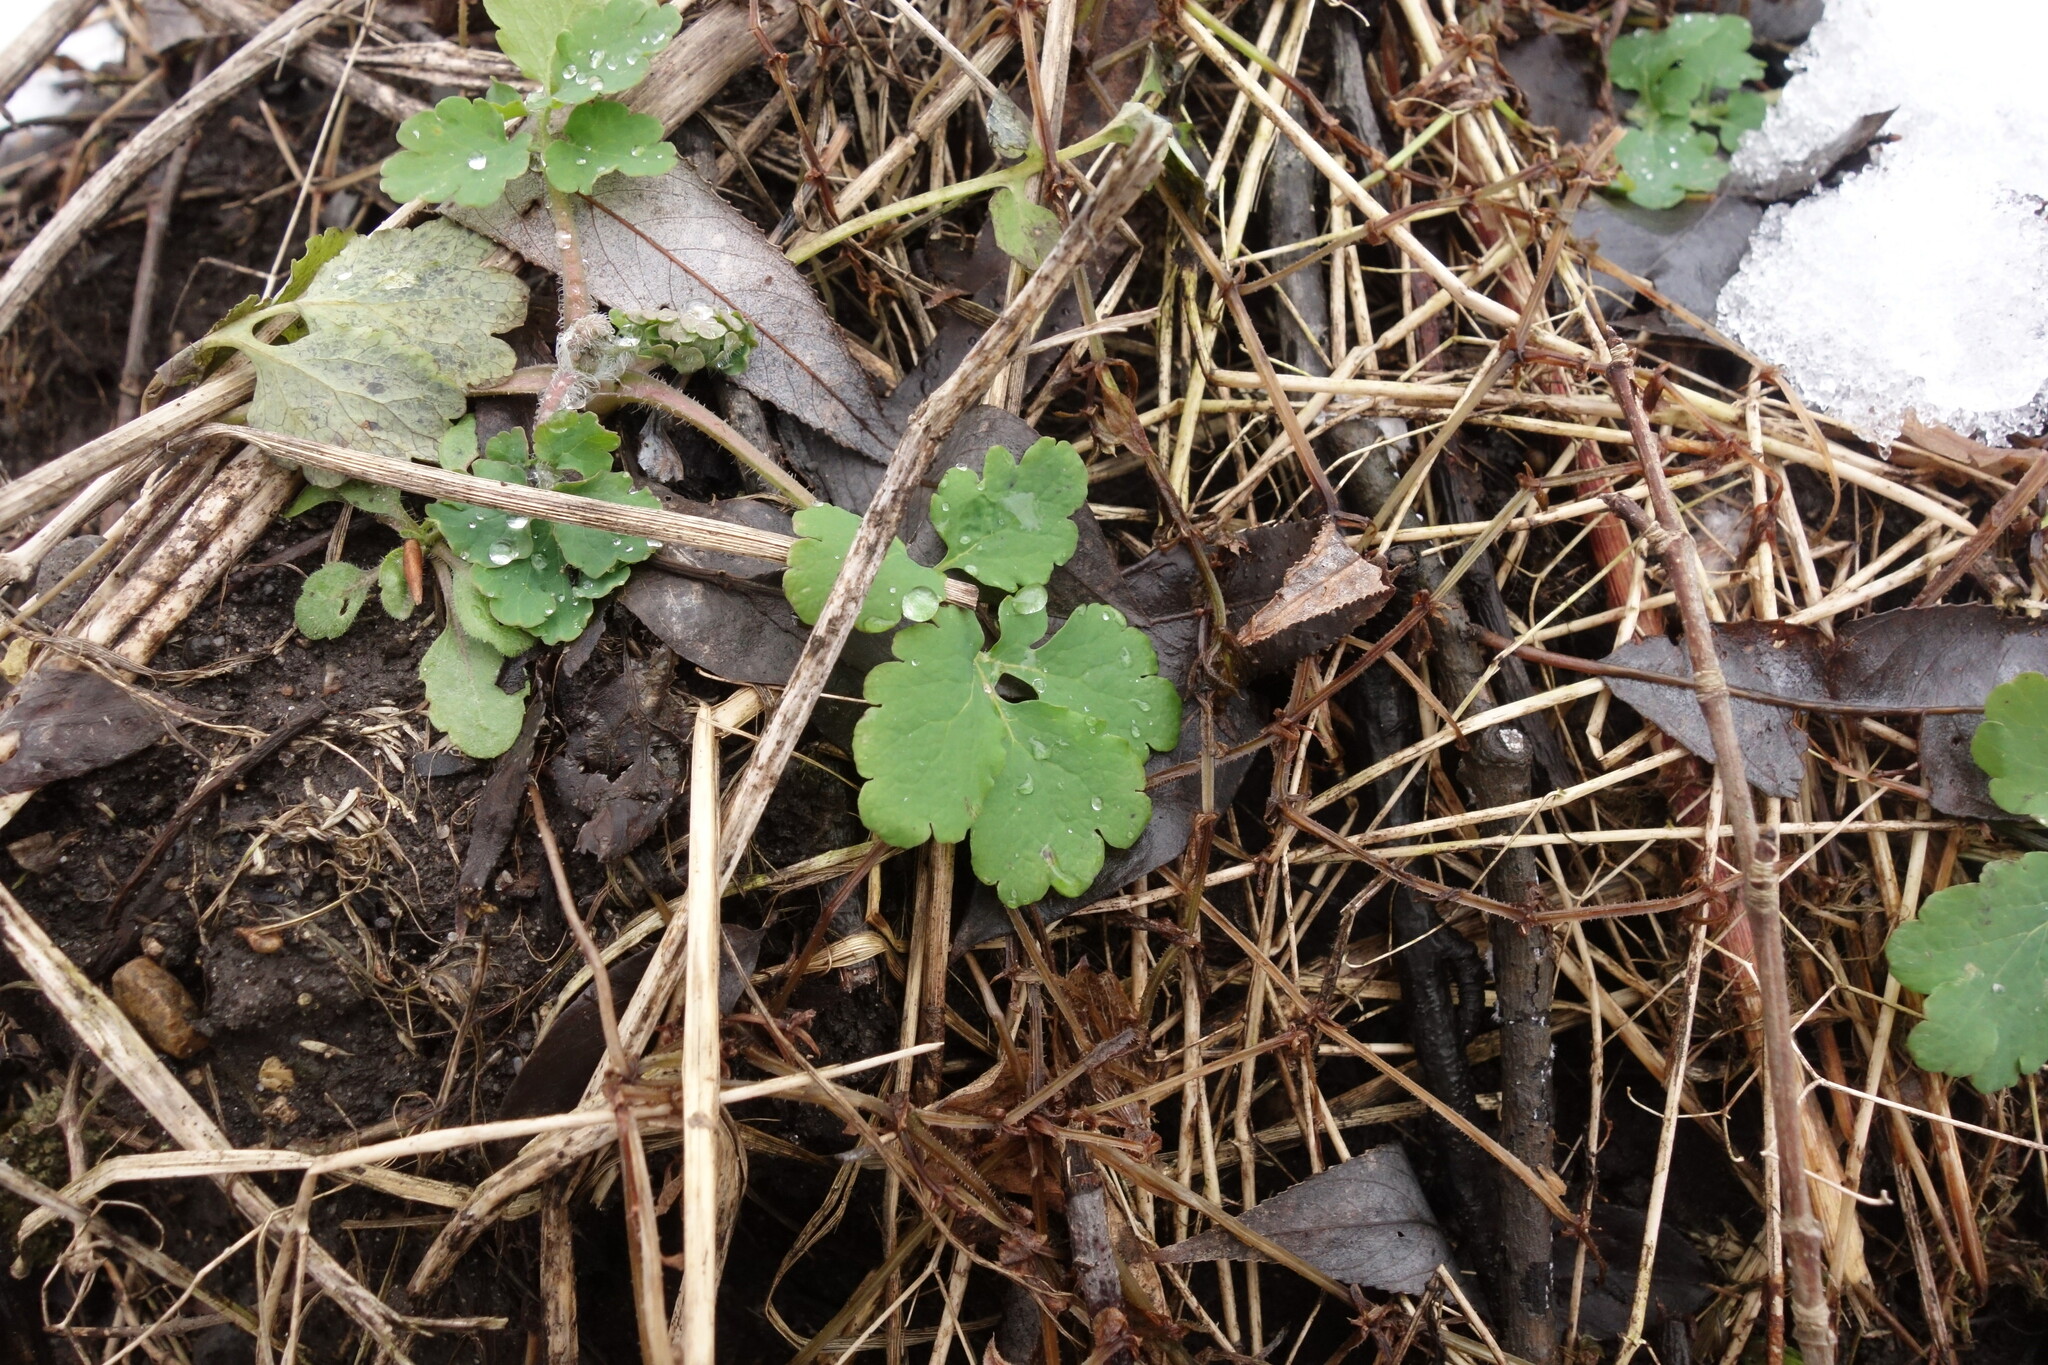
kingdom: Plantae
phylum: Tracheophyta
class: Magnoliopsida
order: Ranunculales
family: Papaveraceae
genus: Chelidonium
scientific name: Chelidonium majus
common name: Greater celandine
